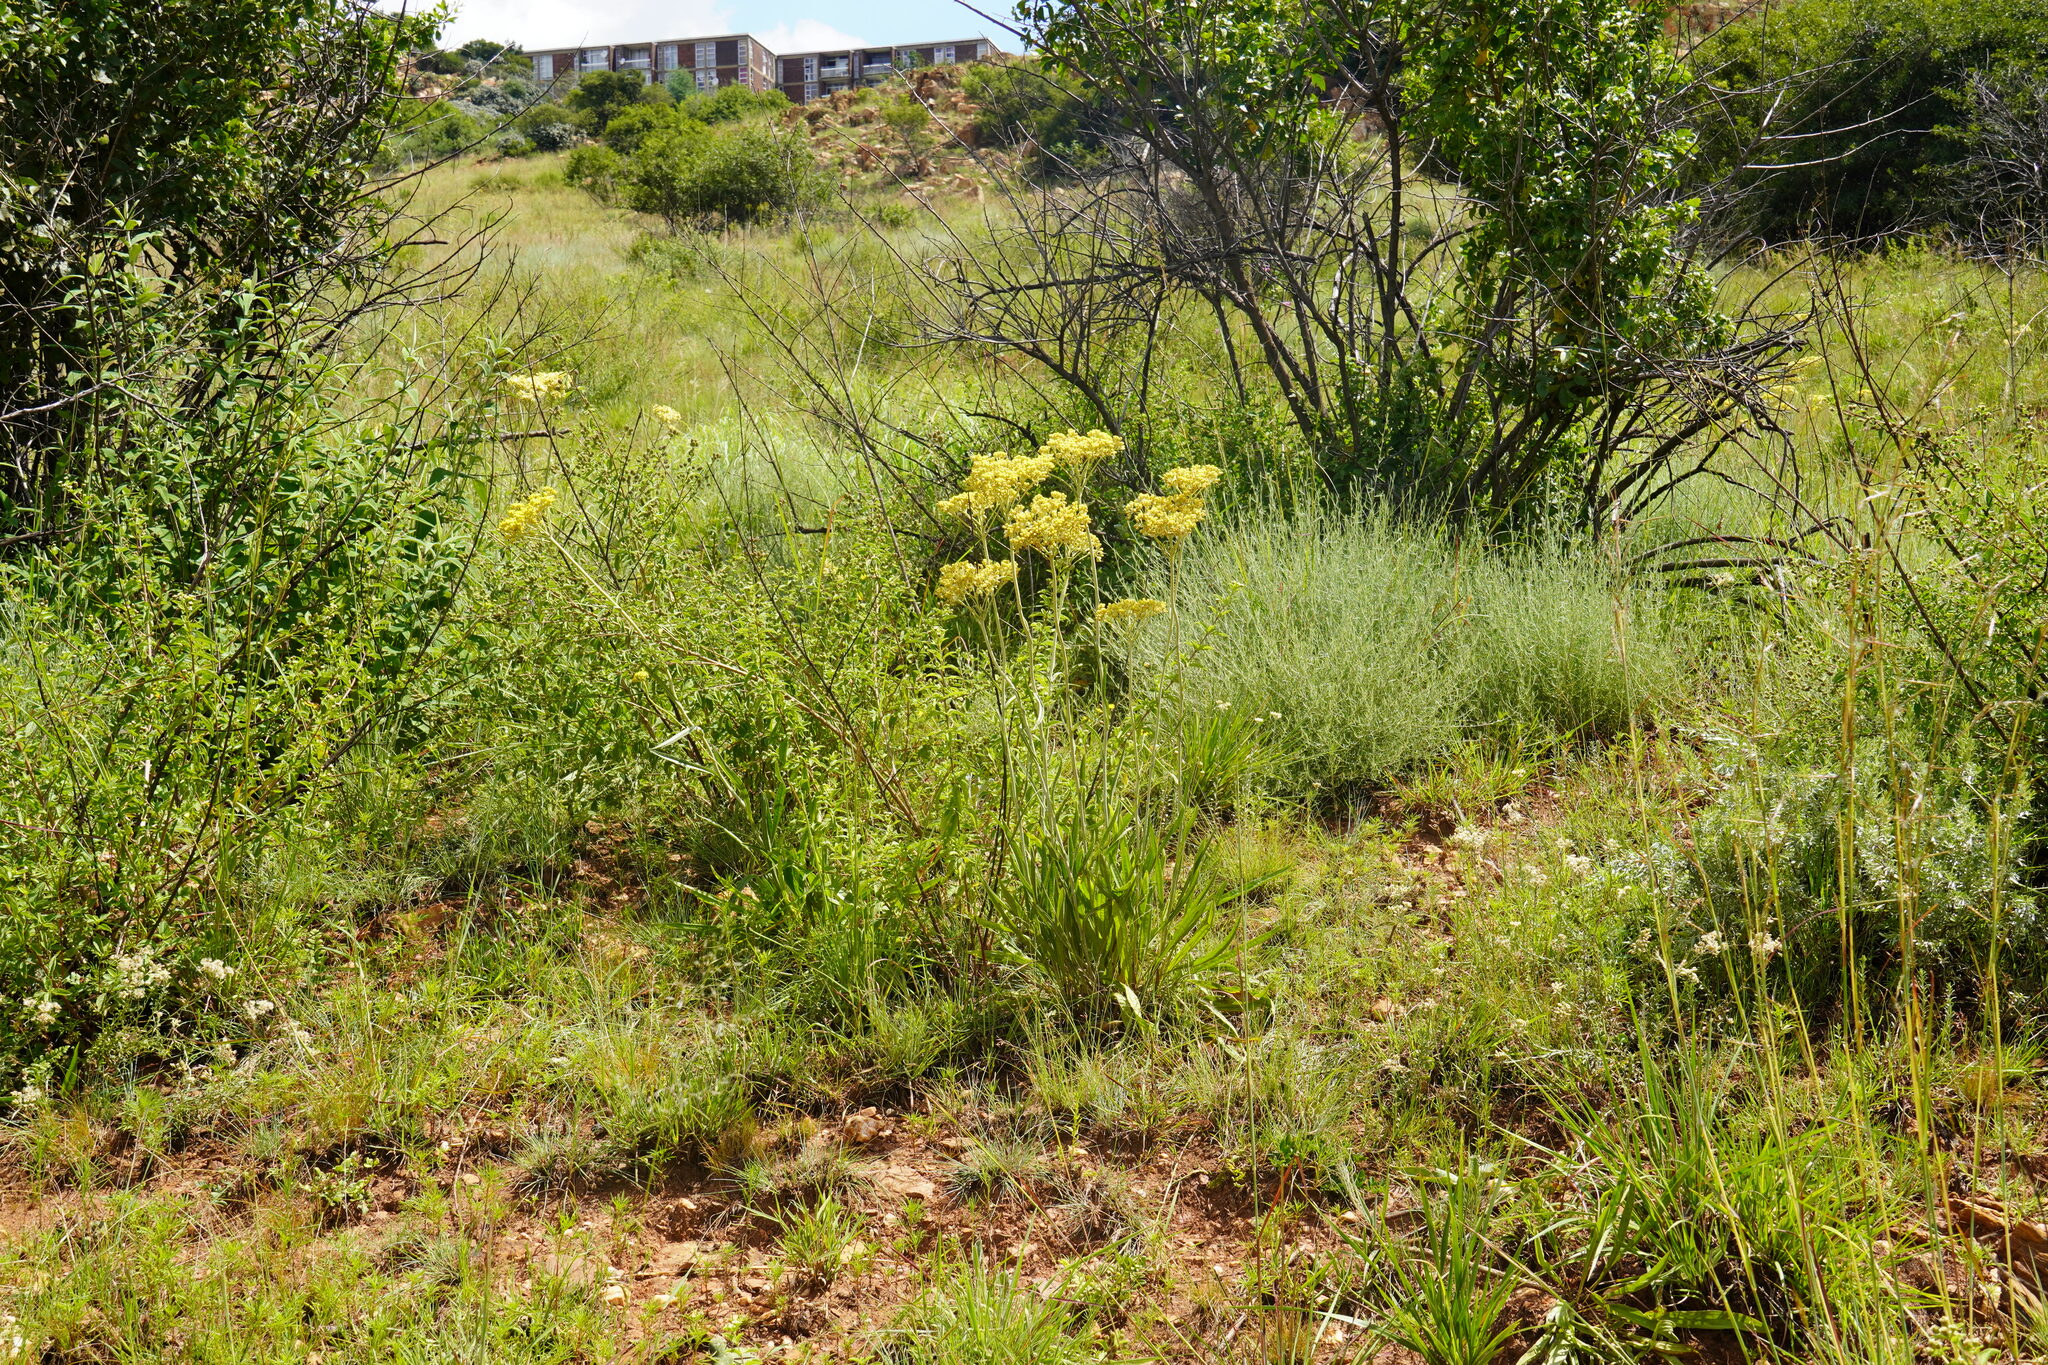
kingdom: Plantae
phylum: Tracheophyta
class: Magnoliopsida
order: Asterales
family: Asteraceae
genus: Helichrysum
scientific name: Helichrysum nudifolium
